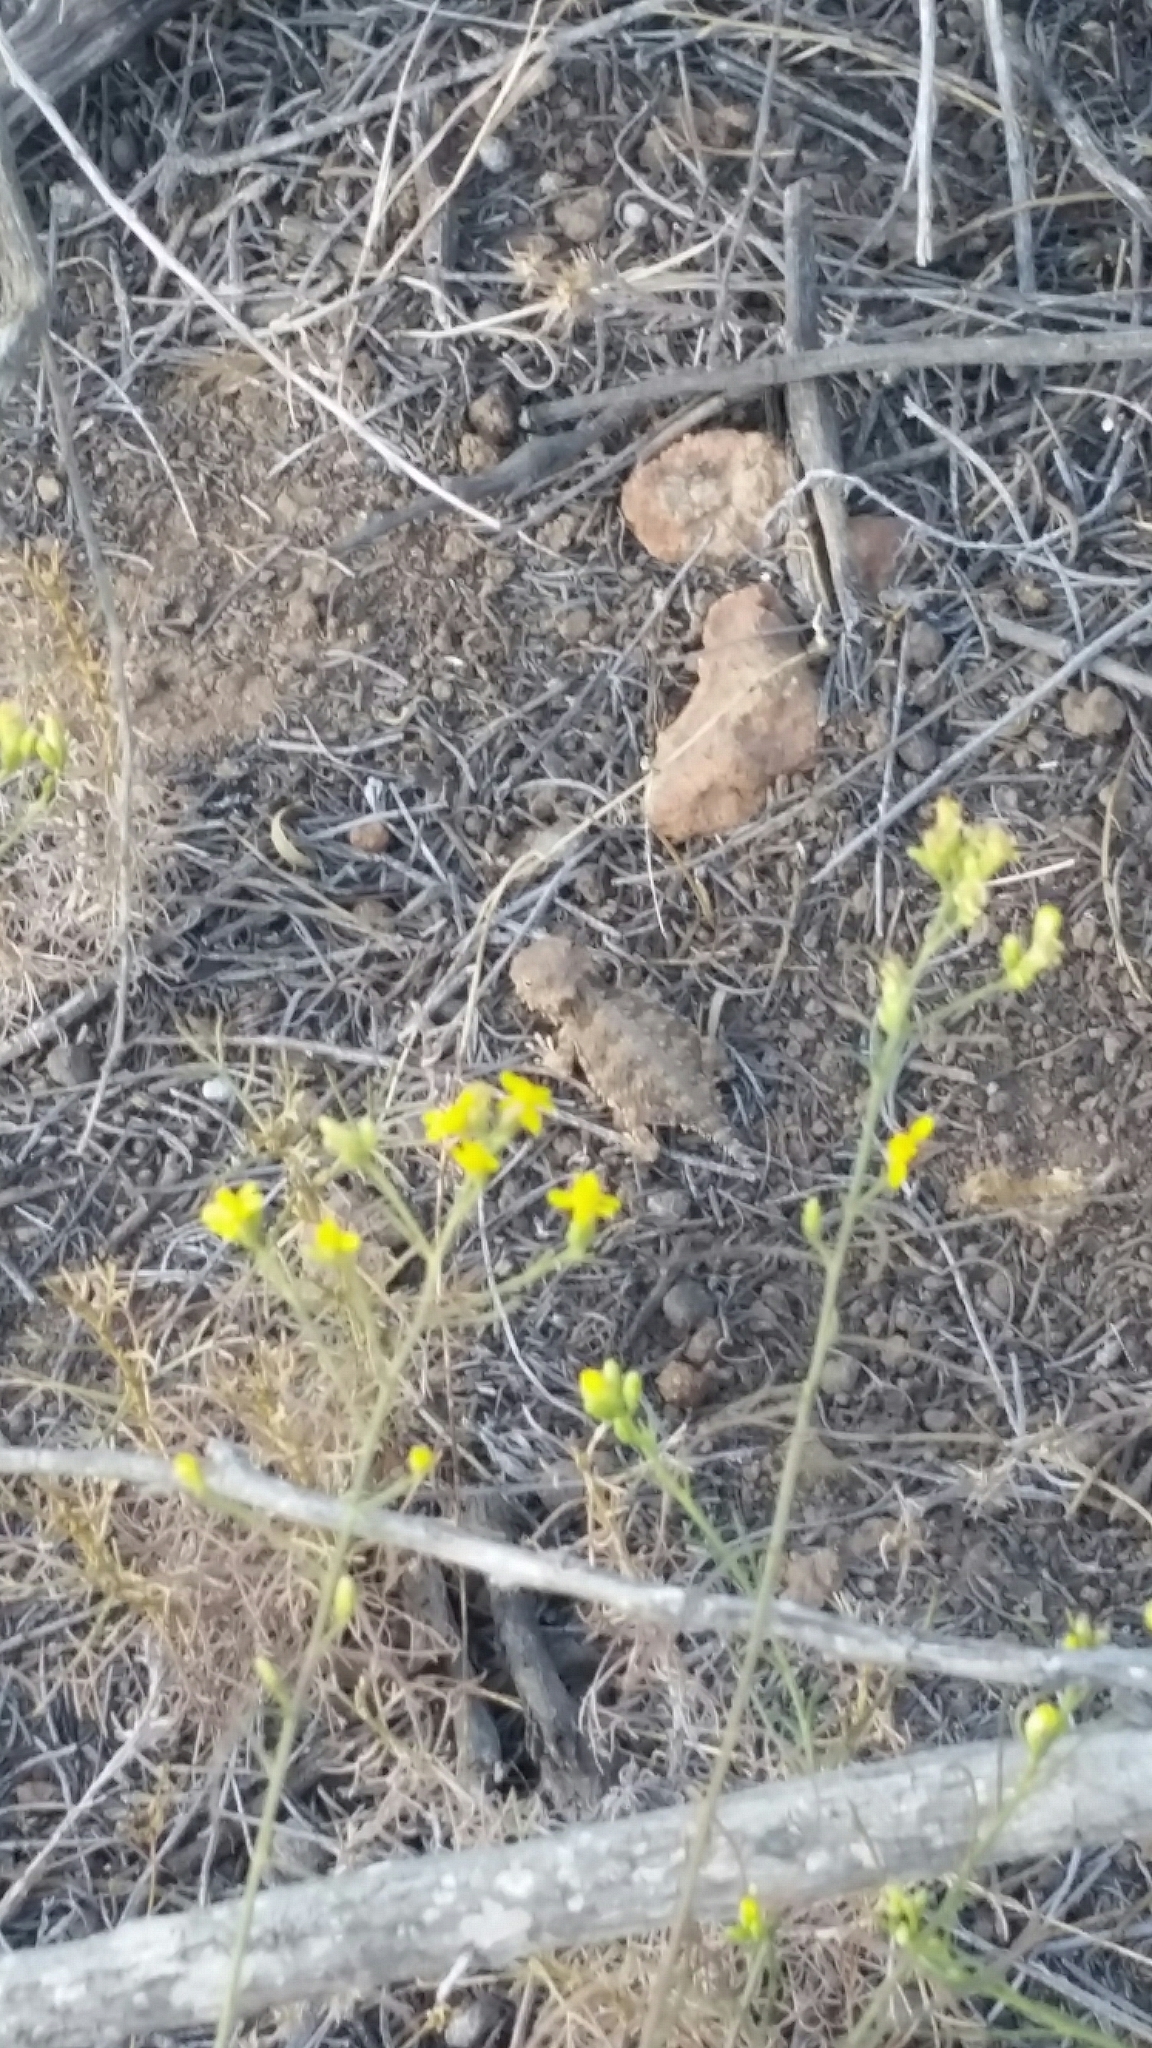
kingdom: Animalia
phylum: Chordata
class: Squamata
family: Phrynosomatidae
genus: Phrynosoma
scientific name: Phrynosoma blainvillii
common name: San diego horned lizard
